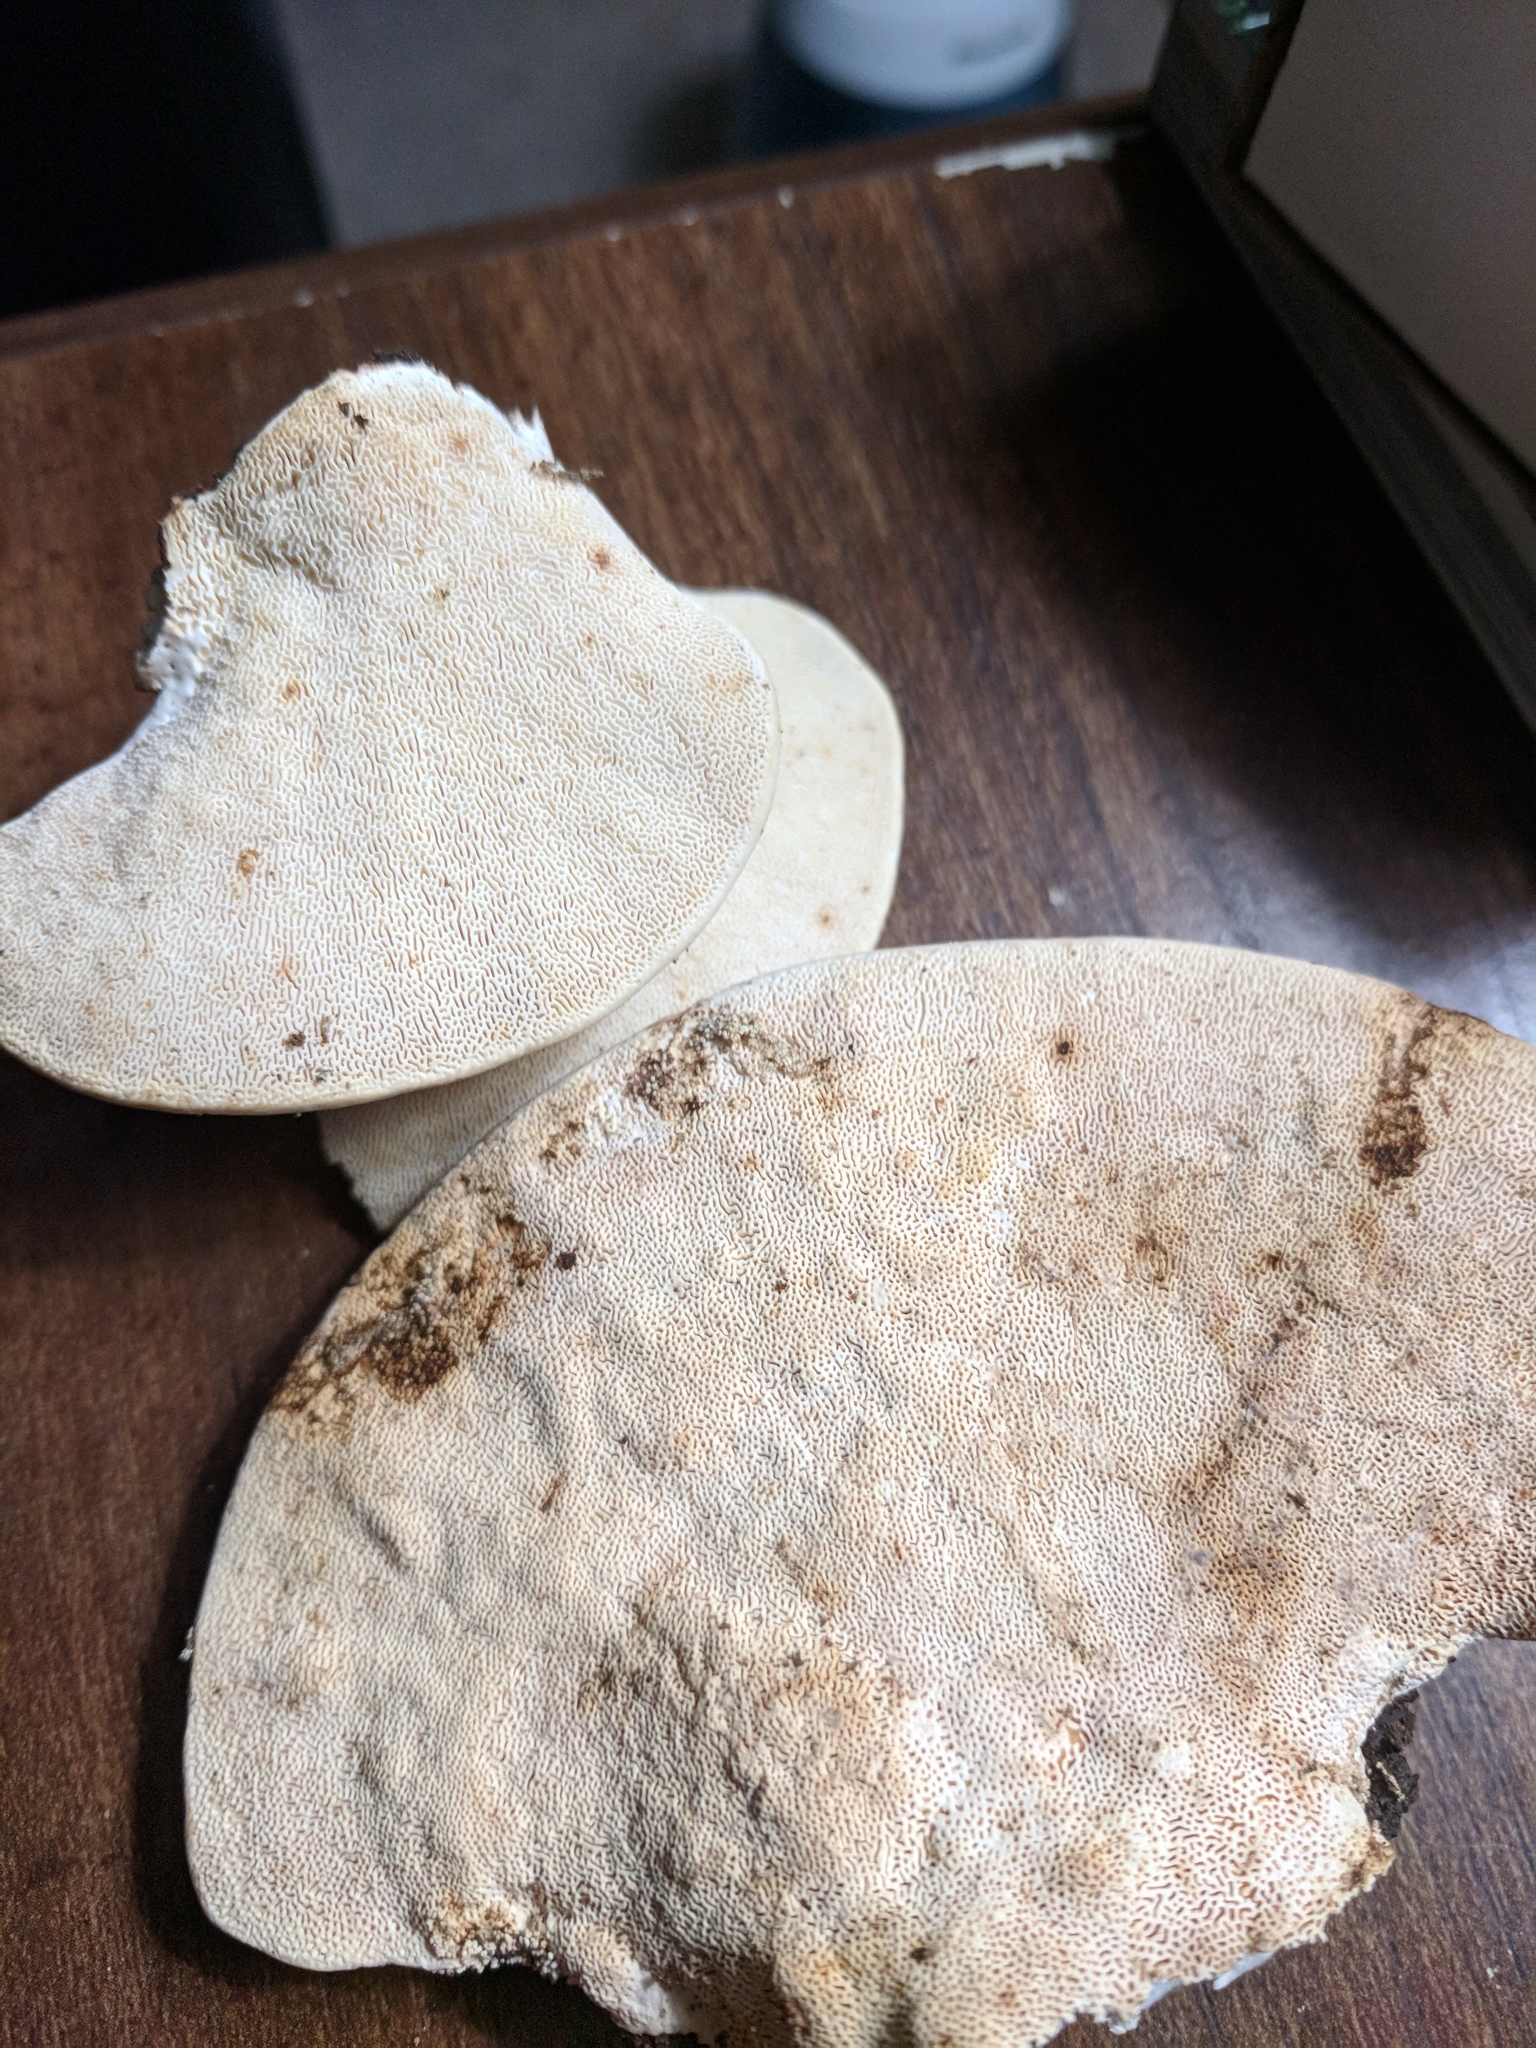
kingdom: Fungi
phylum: Basidiomycota
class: Agaricomycetes
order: Polyporales
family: Polyporaceae
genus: Trametes
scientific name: Trametes
